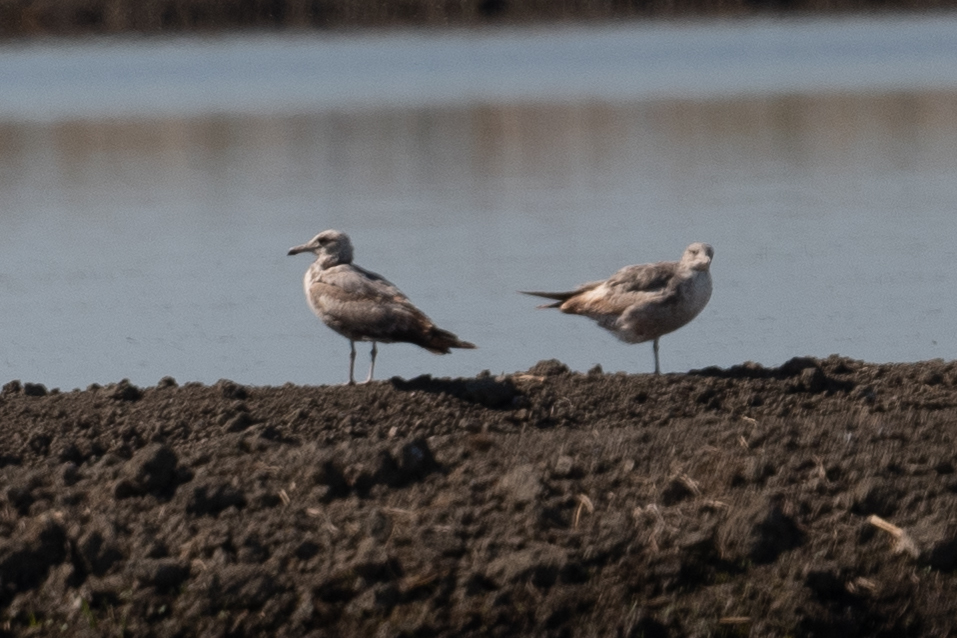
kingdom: Animalia
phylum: Chordata
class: Aves
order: Charadriiformes
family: Laridae
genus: Larus
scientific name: Larus californicus
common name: California gull
